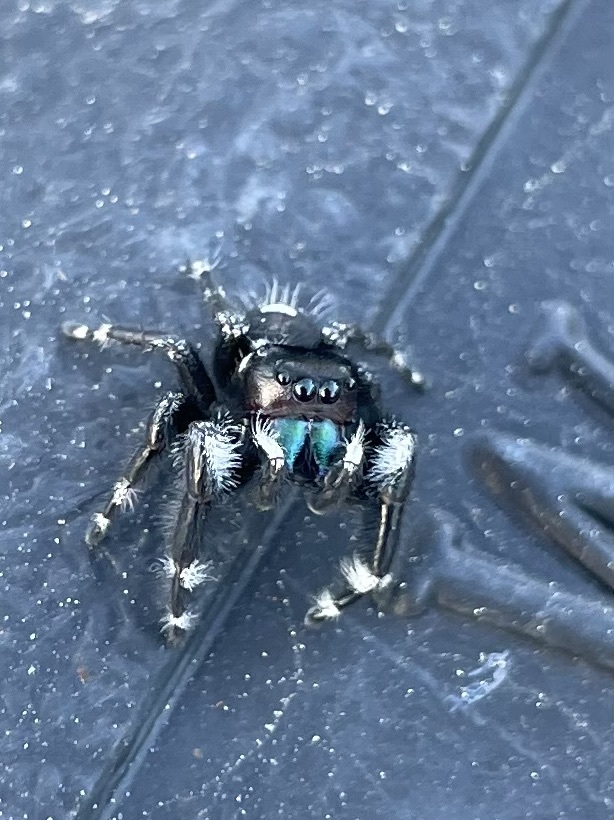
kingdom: Animalia
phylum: Arthropoda
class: Arachnida
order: Araneae
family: Salticidae
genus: Phidippus
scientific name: Phidippus audax
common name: Bold jumper
